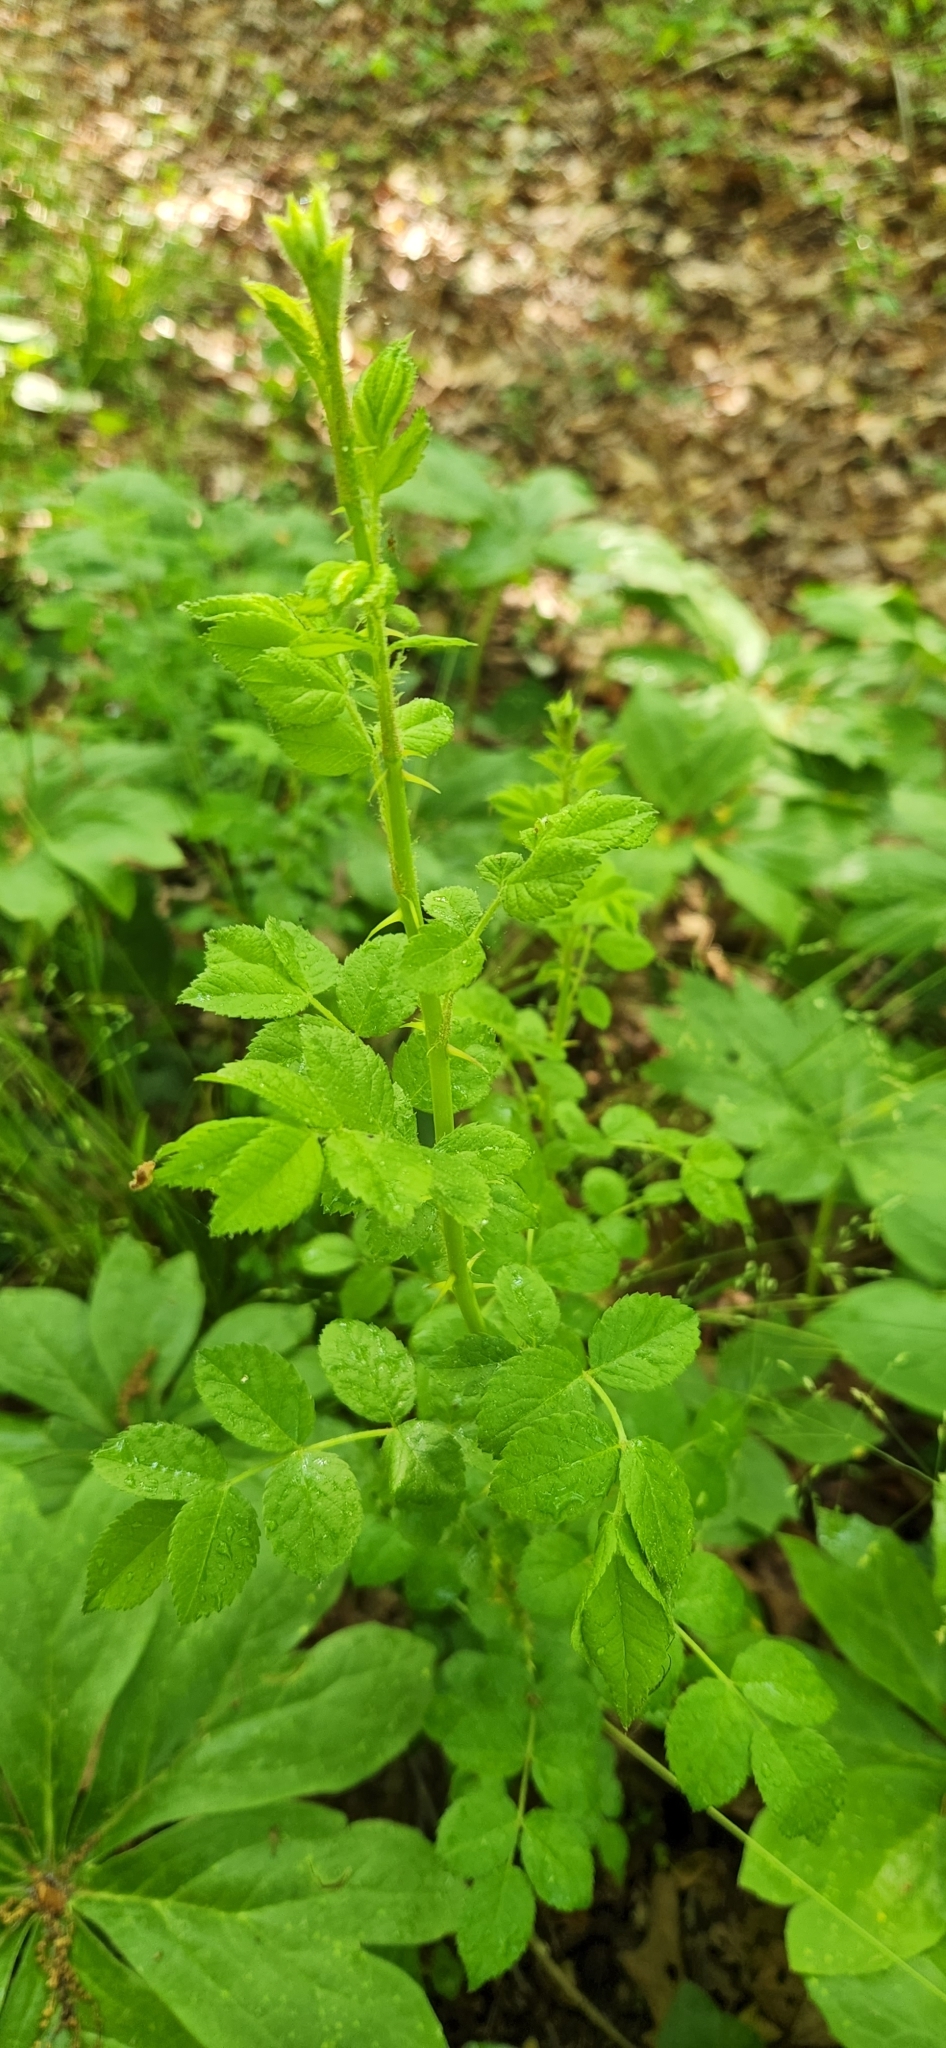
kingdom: Plantae
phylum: Tracheophyta
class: Magnoliopsida
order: Rosales
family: Rosaceae
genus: Rosa
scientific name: Rosa multiflora
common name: Multiflora rose
